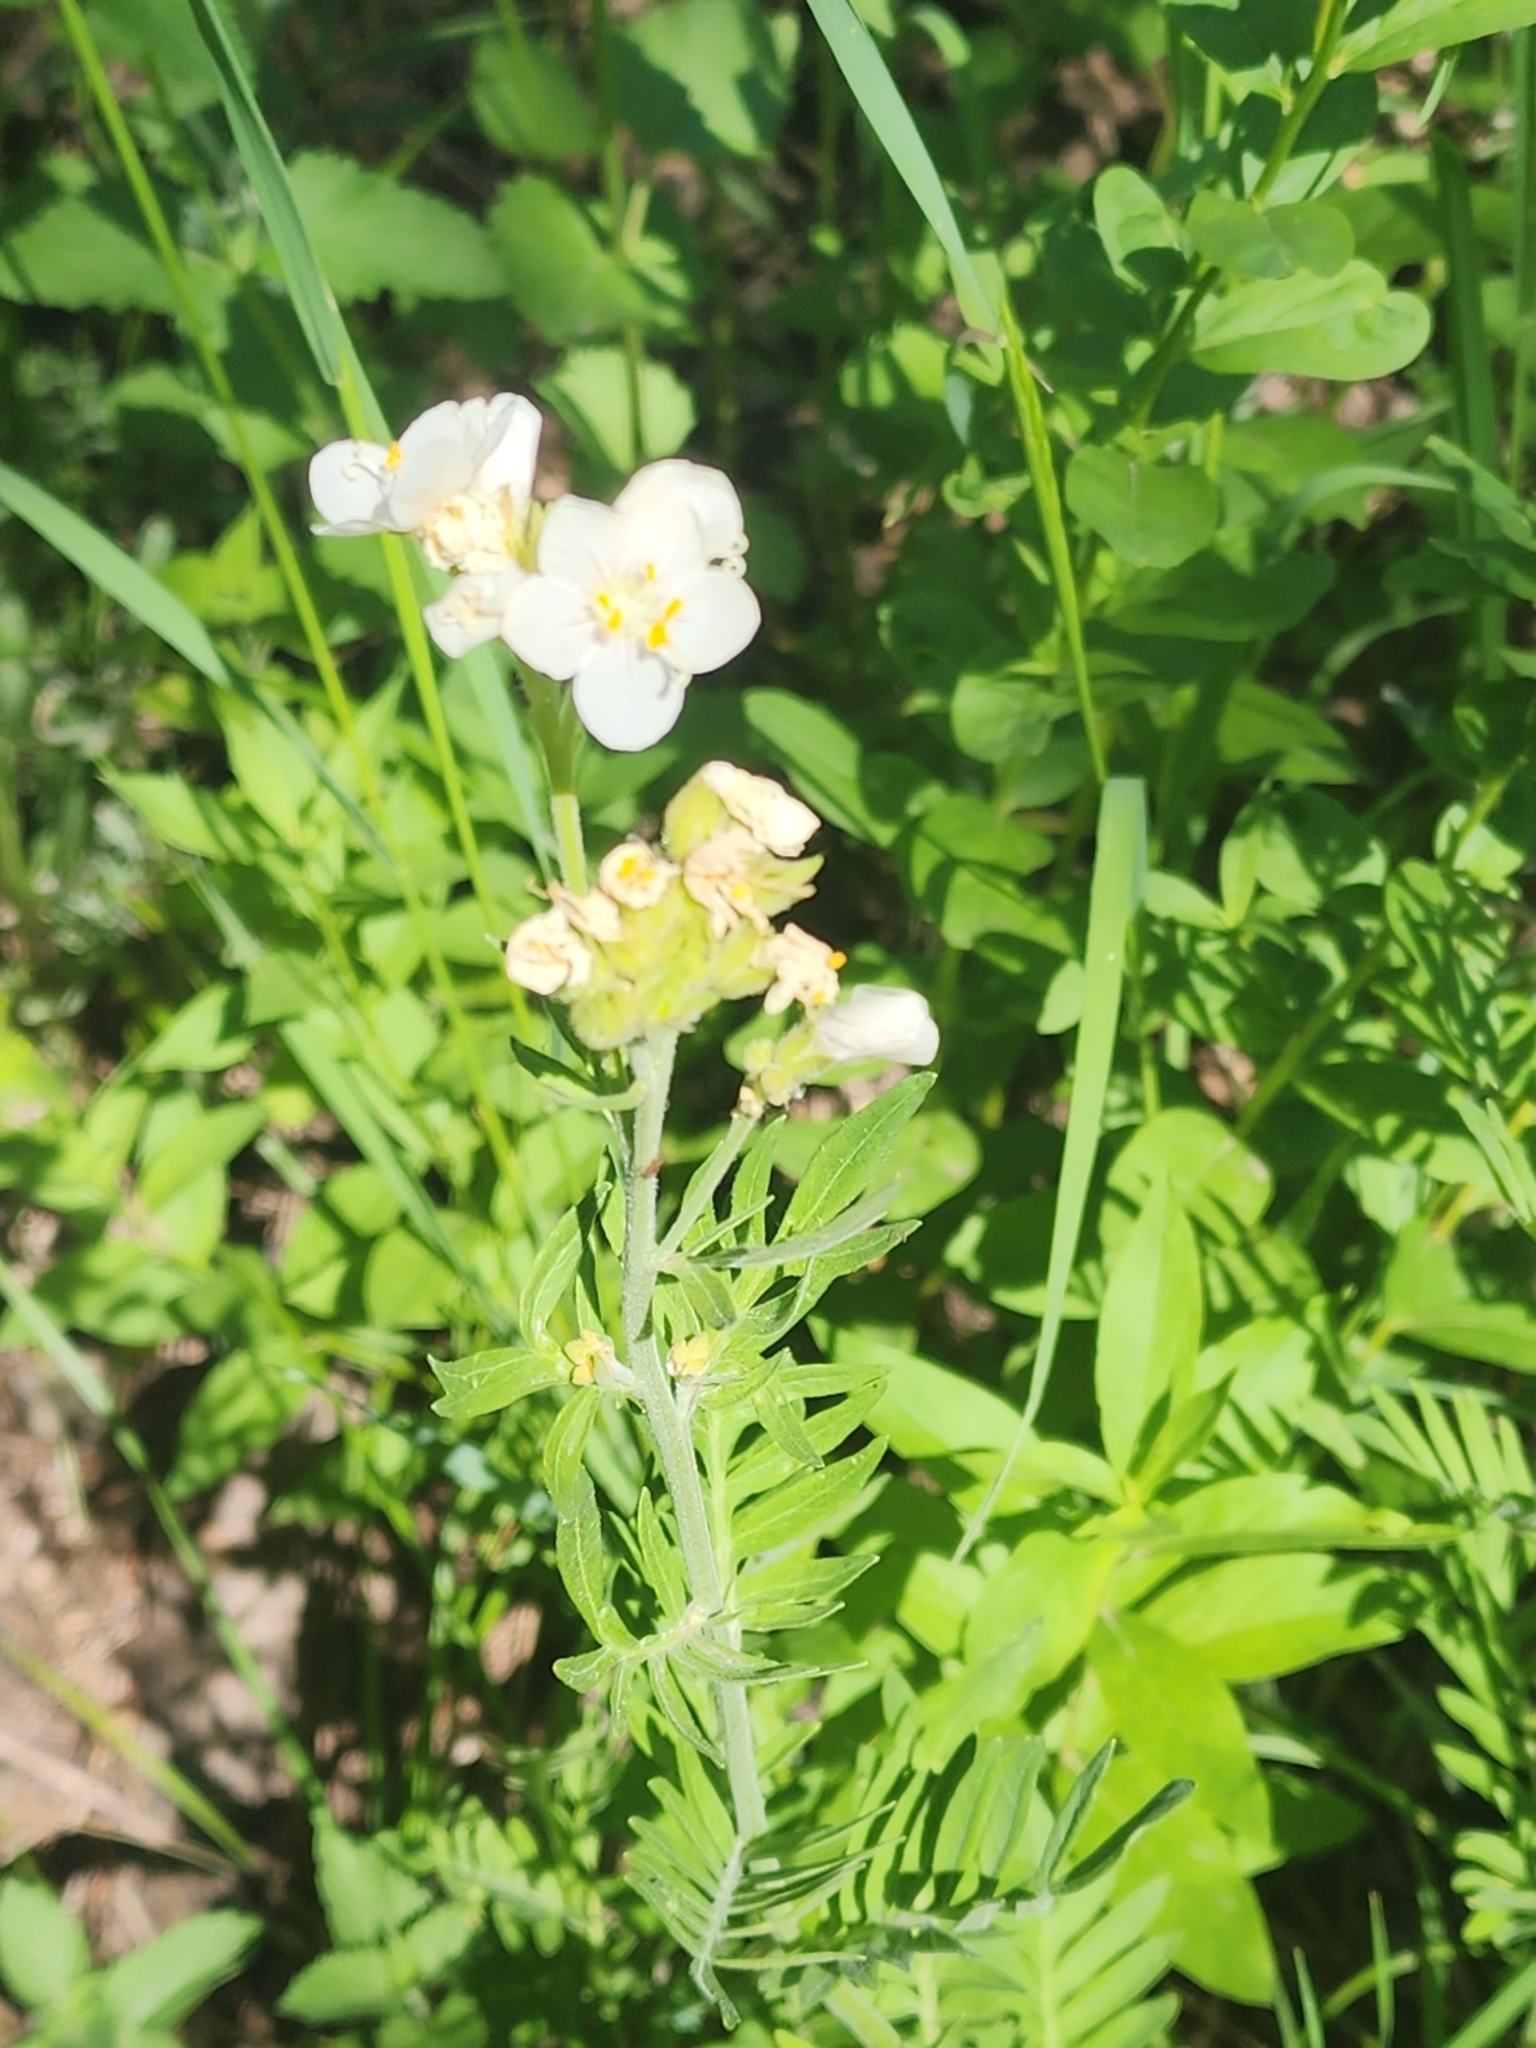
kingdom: Plantae
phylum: Tracheophyta
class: Magnoliopsida
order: Ericales
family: Polemoniaceae
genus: Polemonium
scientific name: Polemonium foliosissimum
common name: Leafy jacob's-ladder
